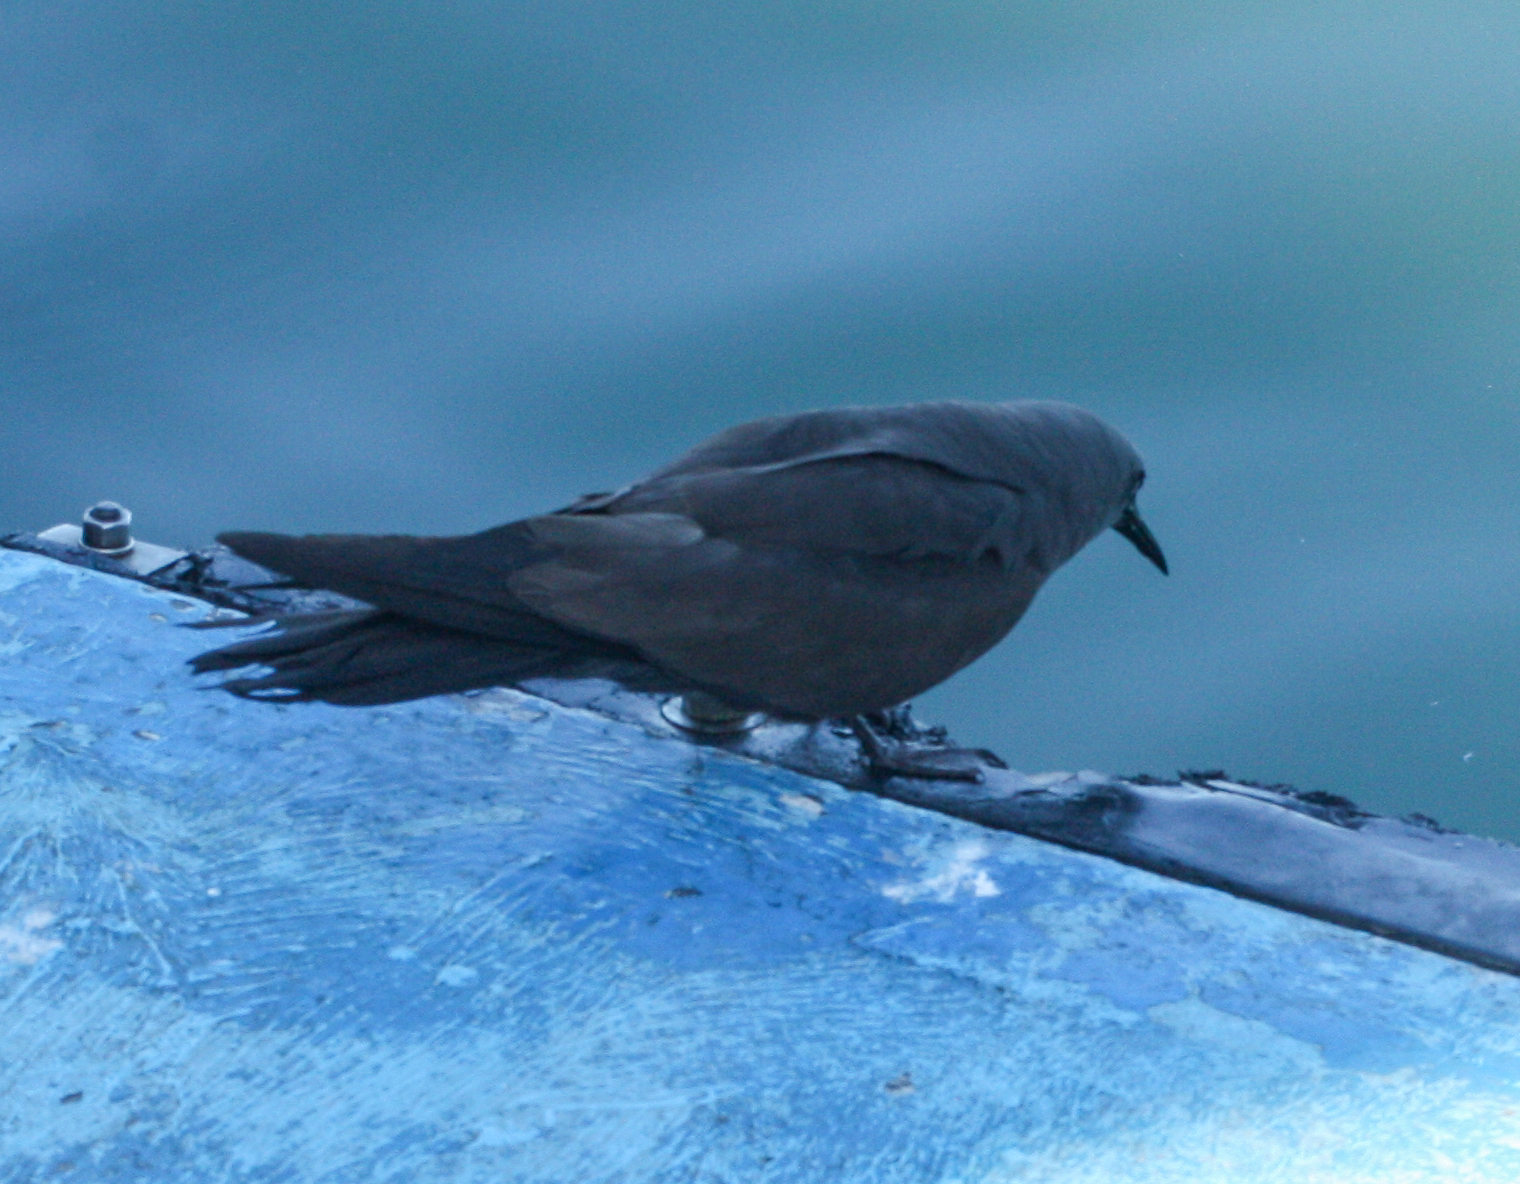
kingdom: Animalia
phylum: Chordata
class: Aves
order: Charadriiformes
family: Laridae
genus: Anous
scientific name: Anous stolidus
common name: Brown noddy
